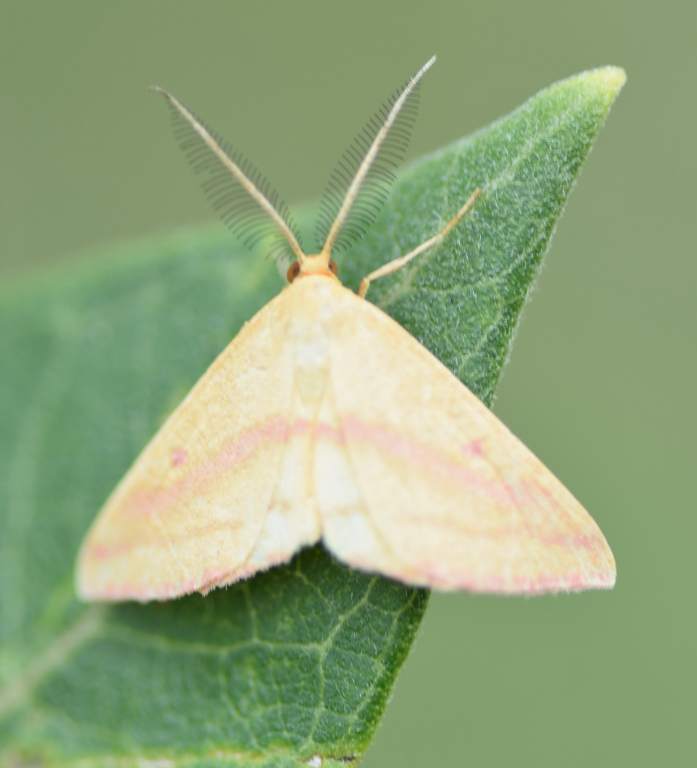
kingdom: Animalia
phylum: Arthropoda
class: Insecta
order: Lepidoptera
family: Geometridae
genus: Haematopis
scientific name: Haematopis grataria
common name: Chickweed geometer
